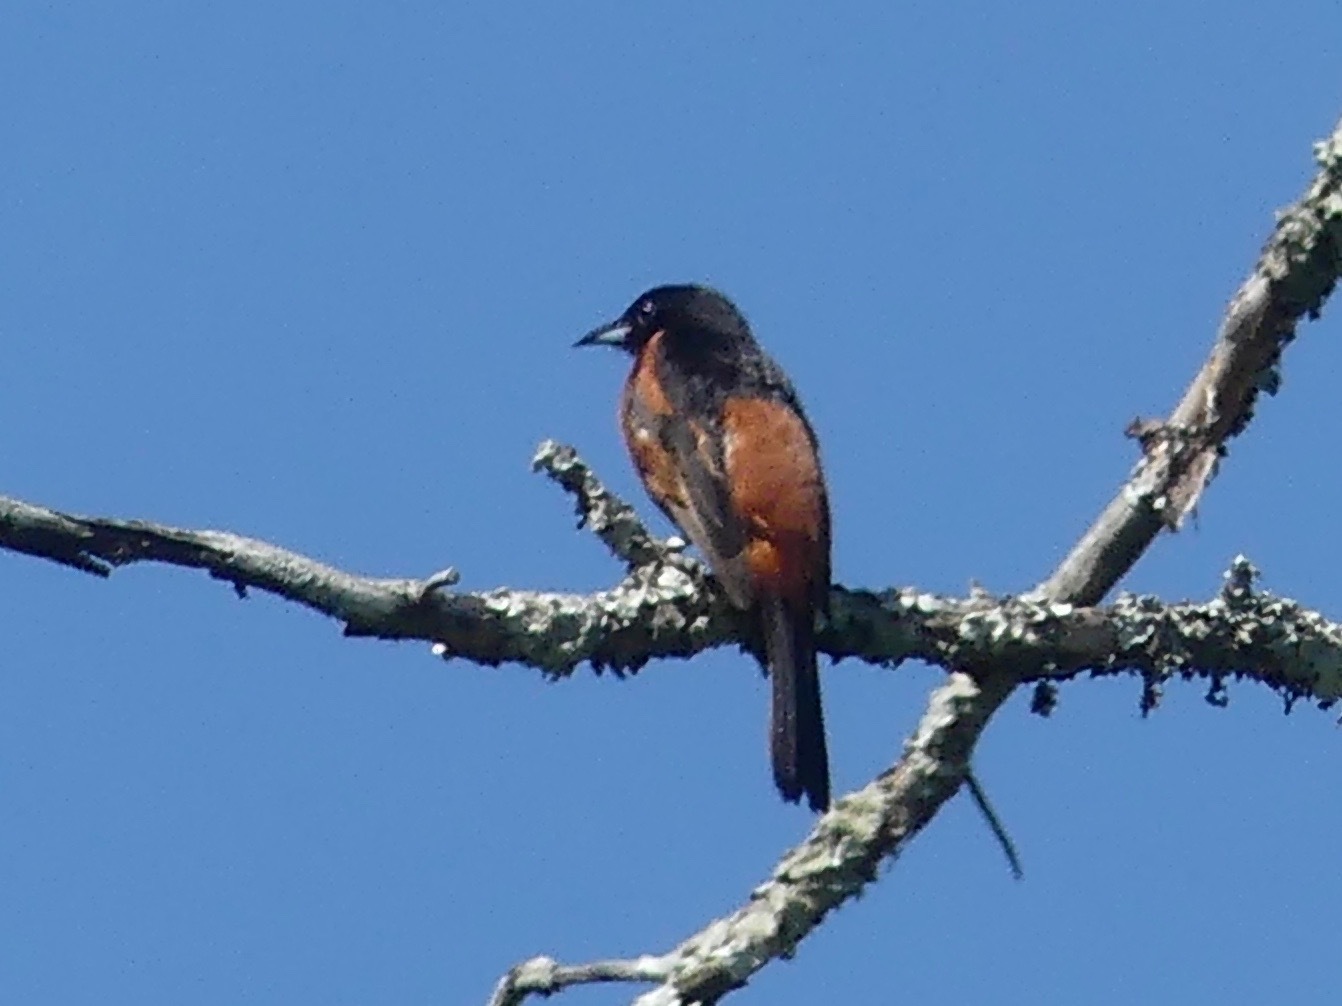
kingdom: Animalia
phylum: Chordata
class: Aves
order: Passeriformes
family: Icteridae
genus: Icterus
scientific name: Icterus spurius
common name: Orchard oriole
